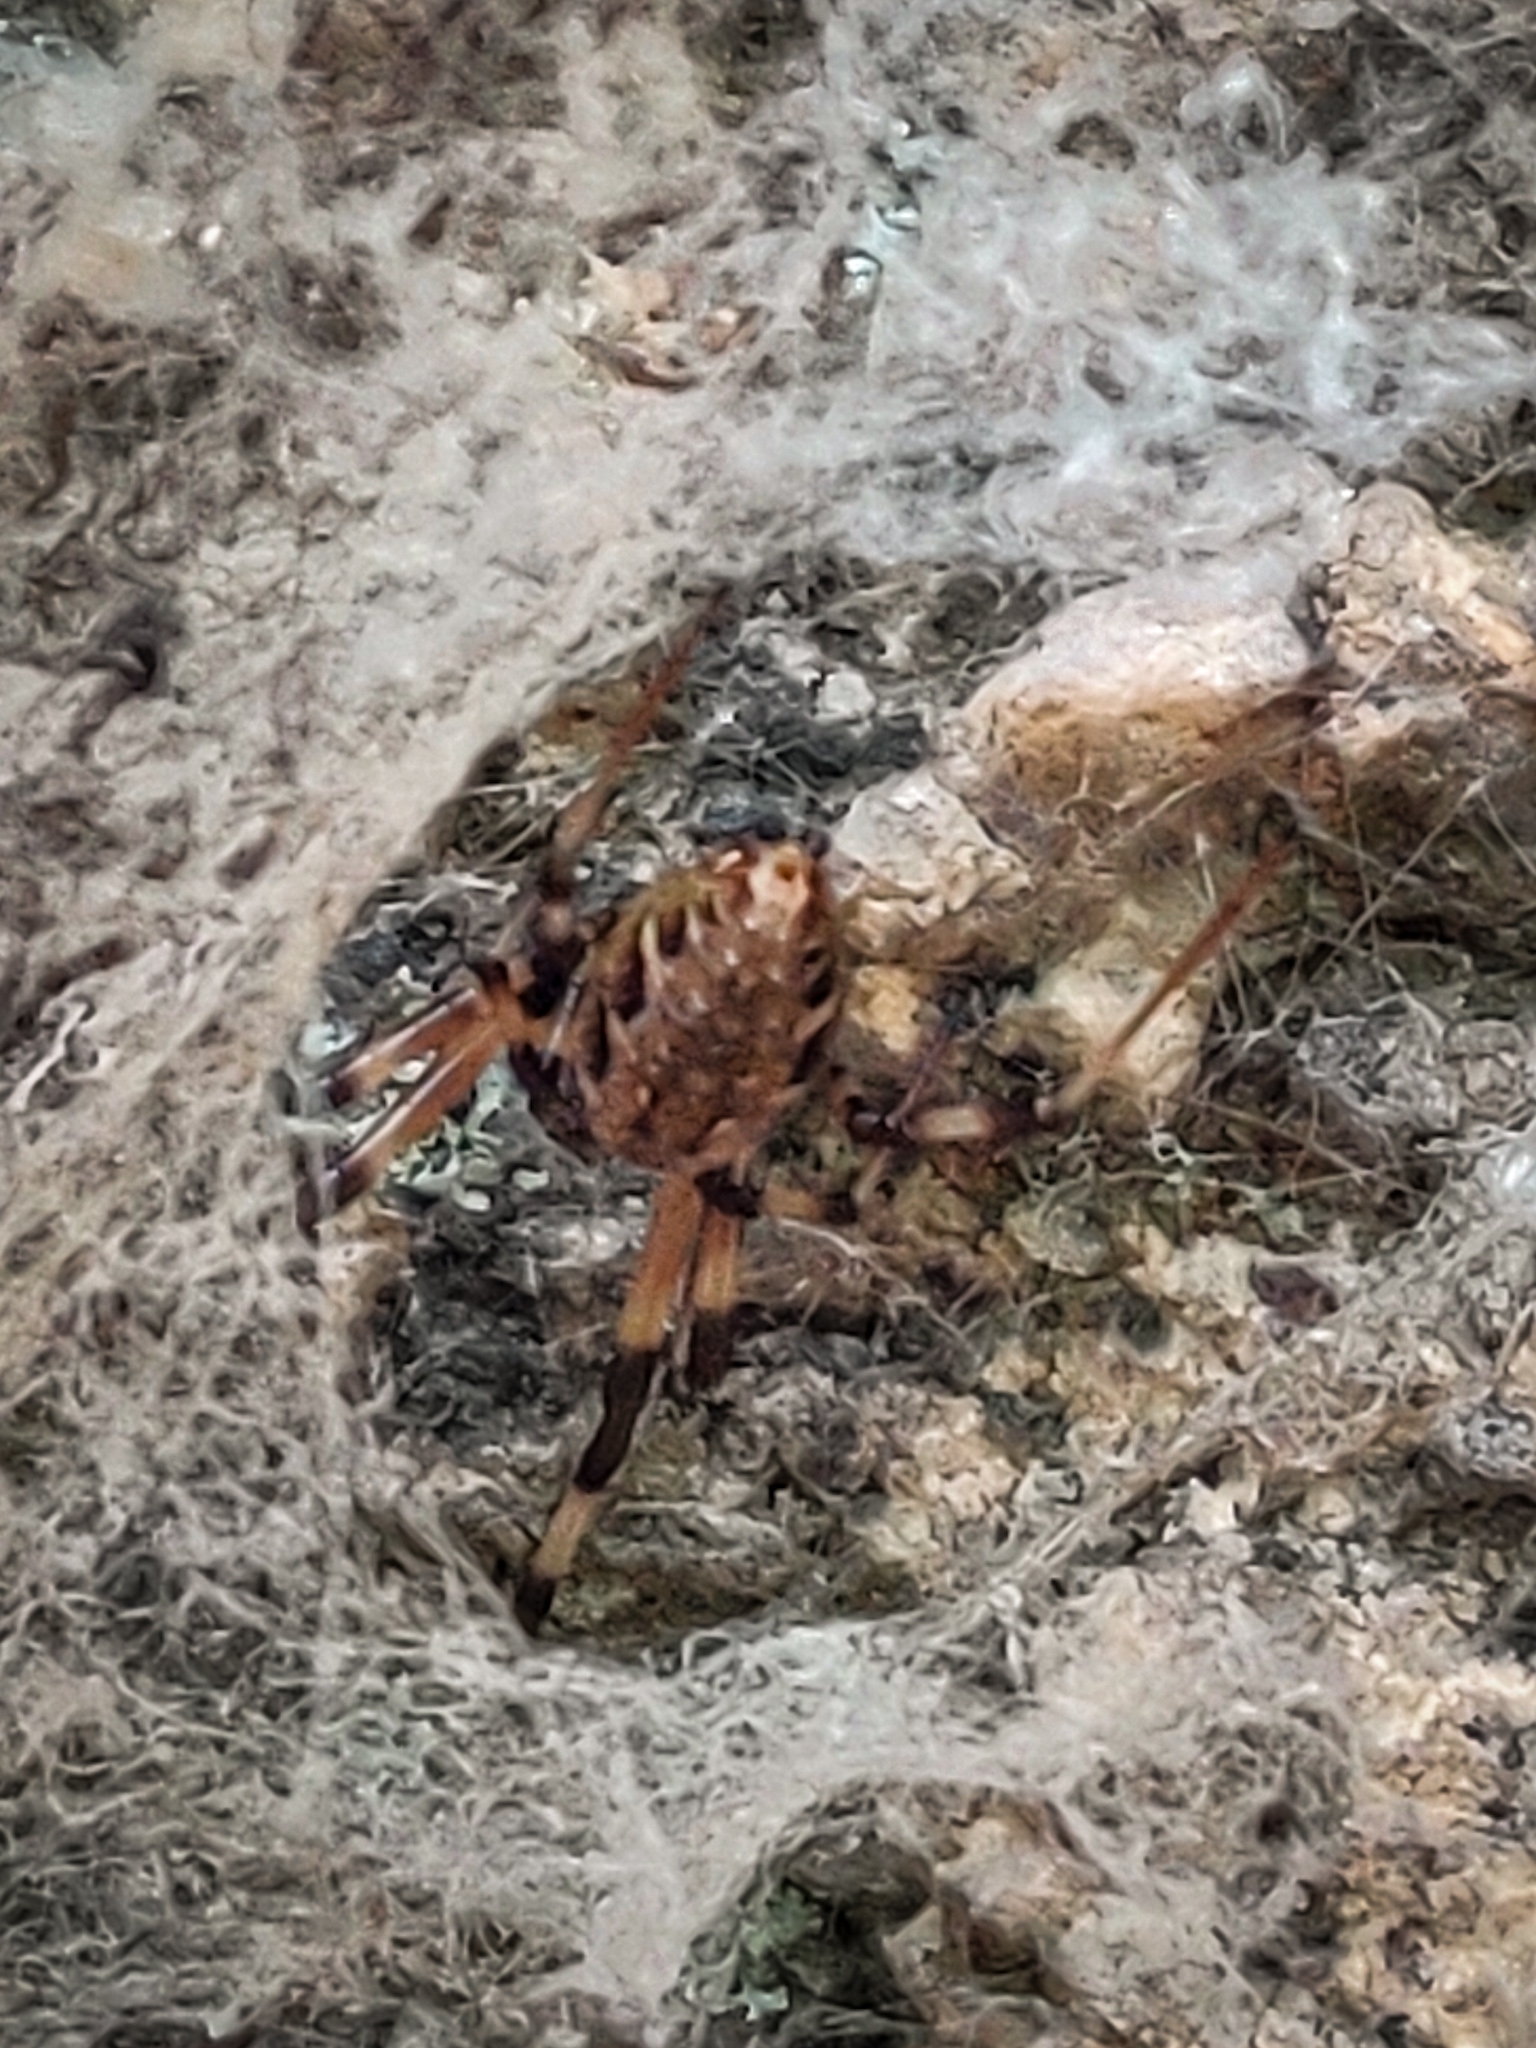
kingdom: Animalia
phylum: Arthropoda
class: Arachnida
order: Araneae
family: Araneidae
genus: Nephilengys
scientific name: Nephilengys malabarensis
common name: Asian hermit spider
